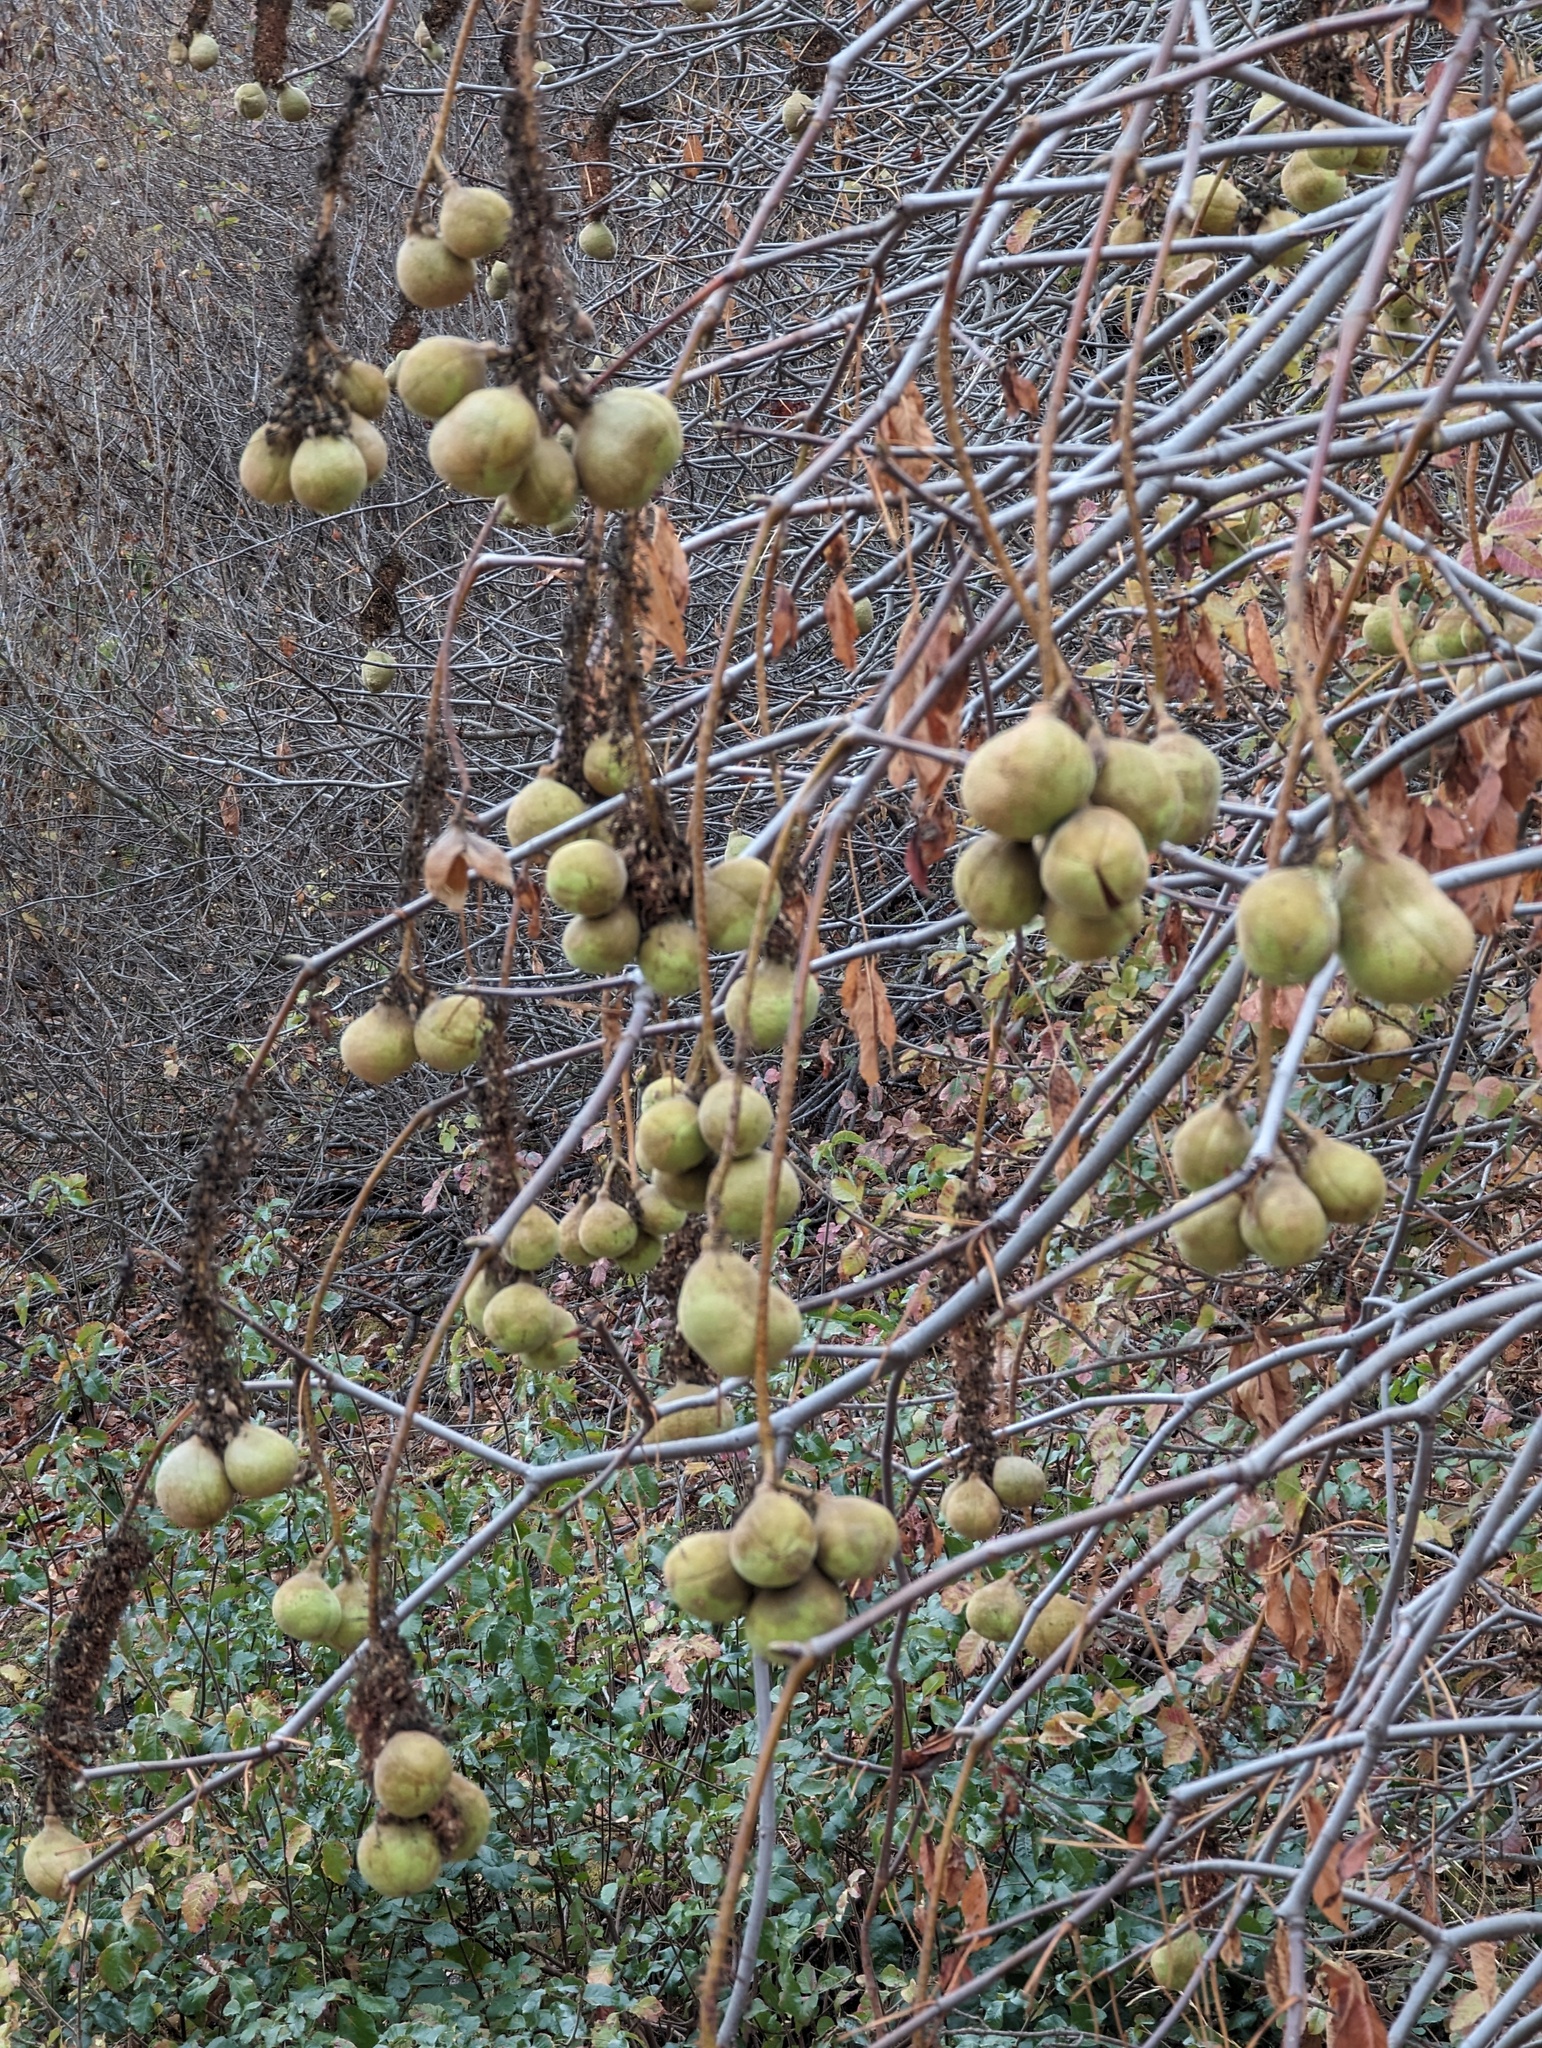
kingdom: Plantae
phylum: Tracheophyta
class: Magnoliopsida
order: Sapindales
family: Sapindaceae
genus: Aesculus
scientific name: Aesculus californica
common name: California buckeye
